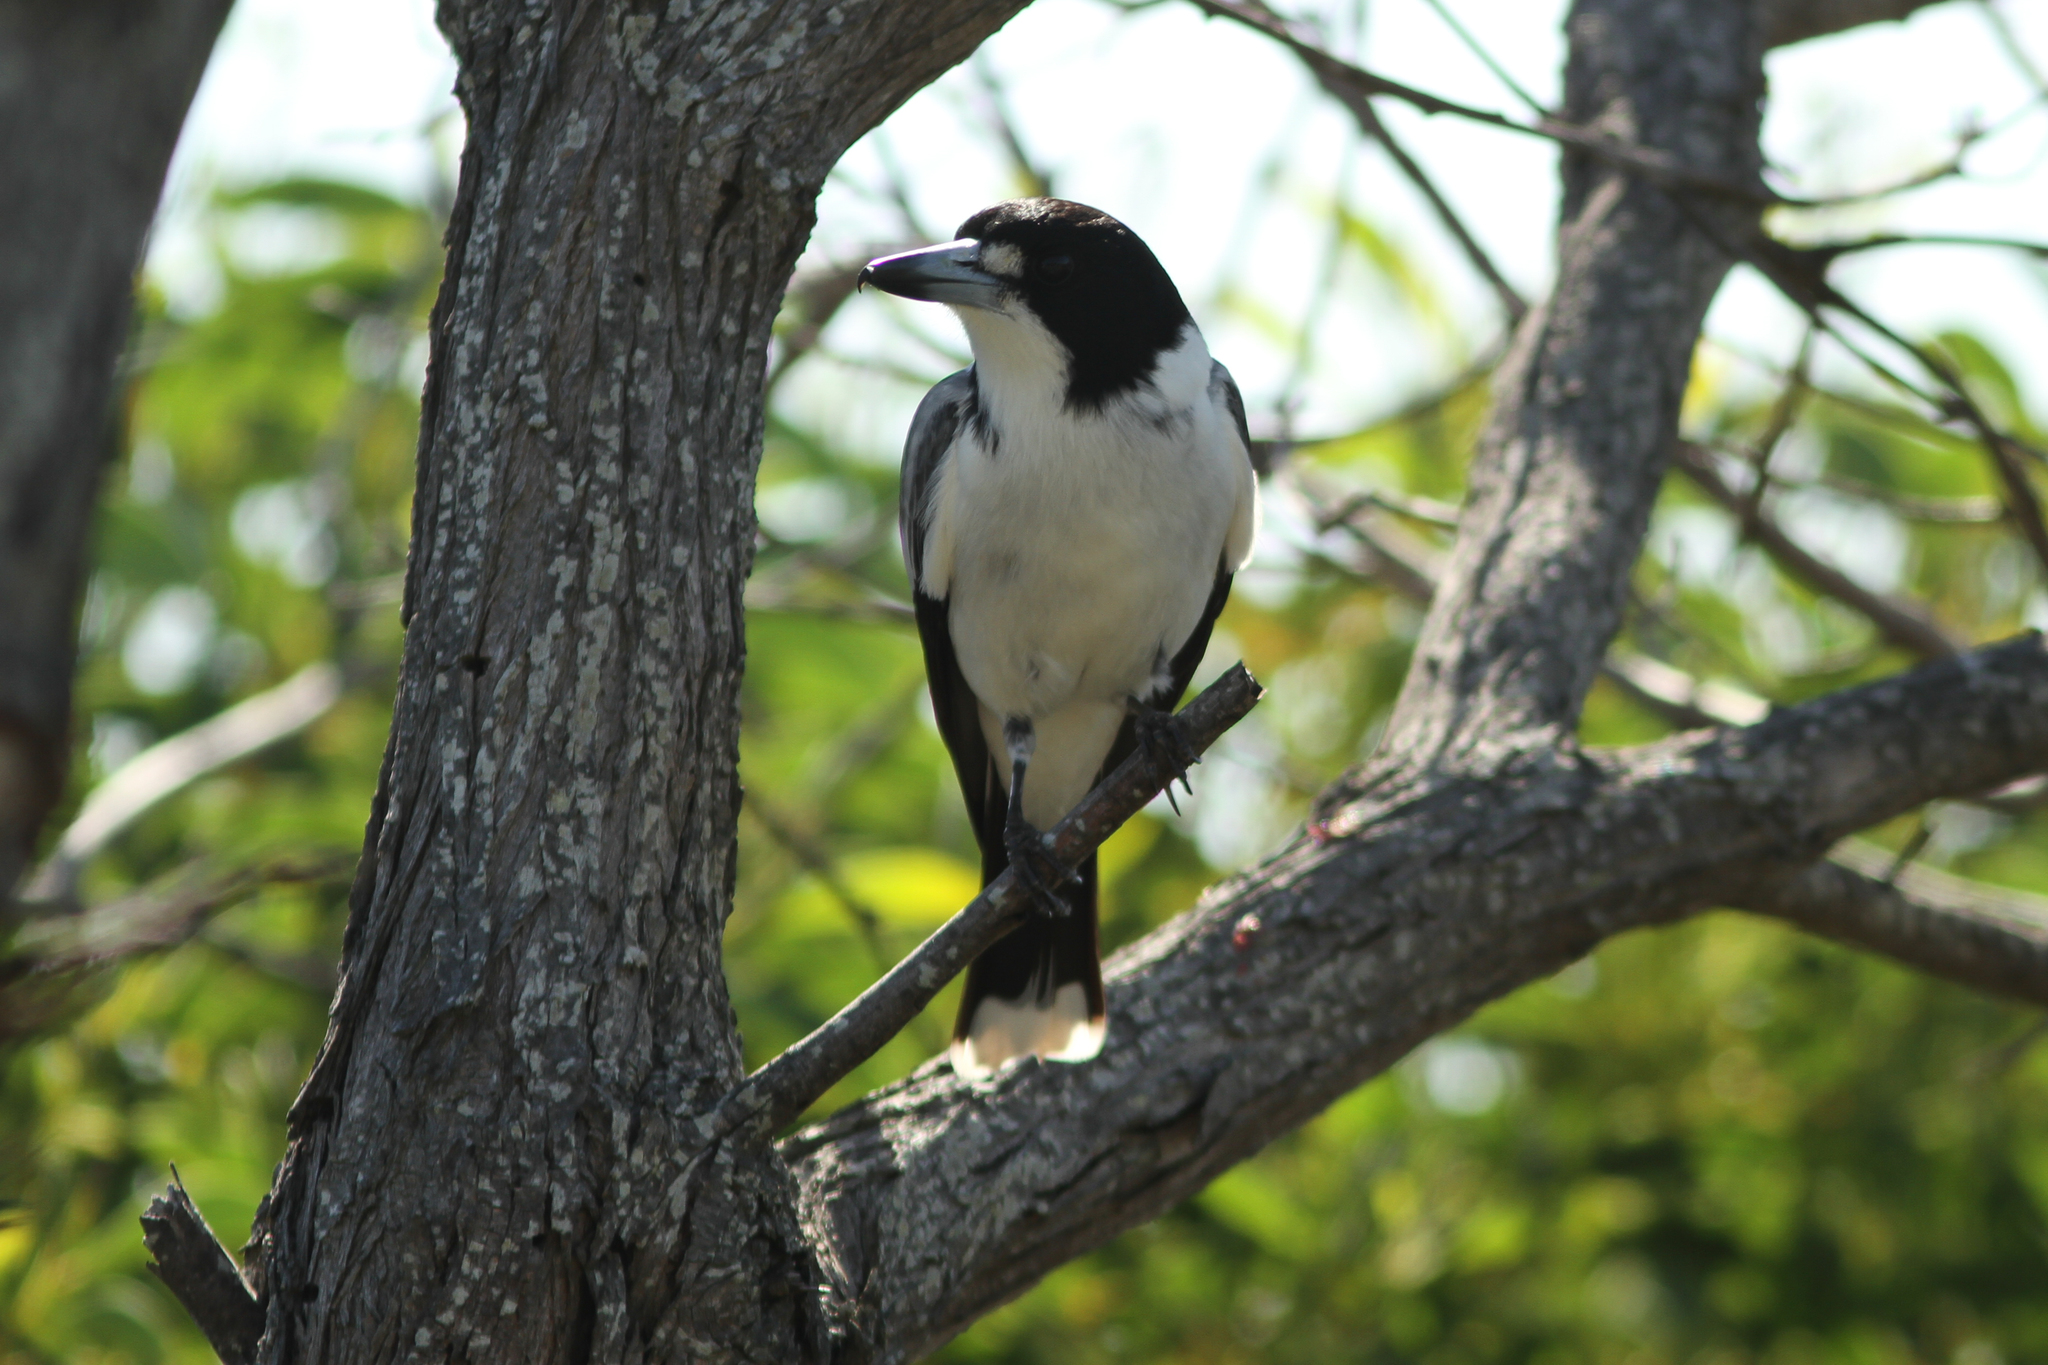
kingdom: Animalia
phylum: Chordata
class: Aves
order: Passeriformes
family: Cracticidae
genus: Cracticus
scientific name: Cracticus torquatus
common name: Grey butcherbird
